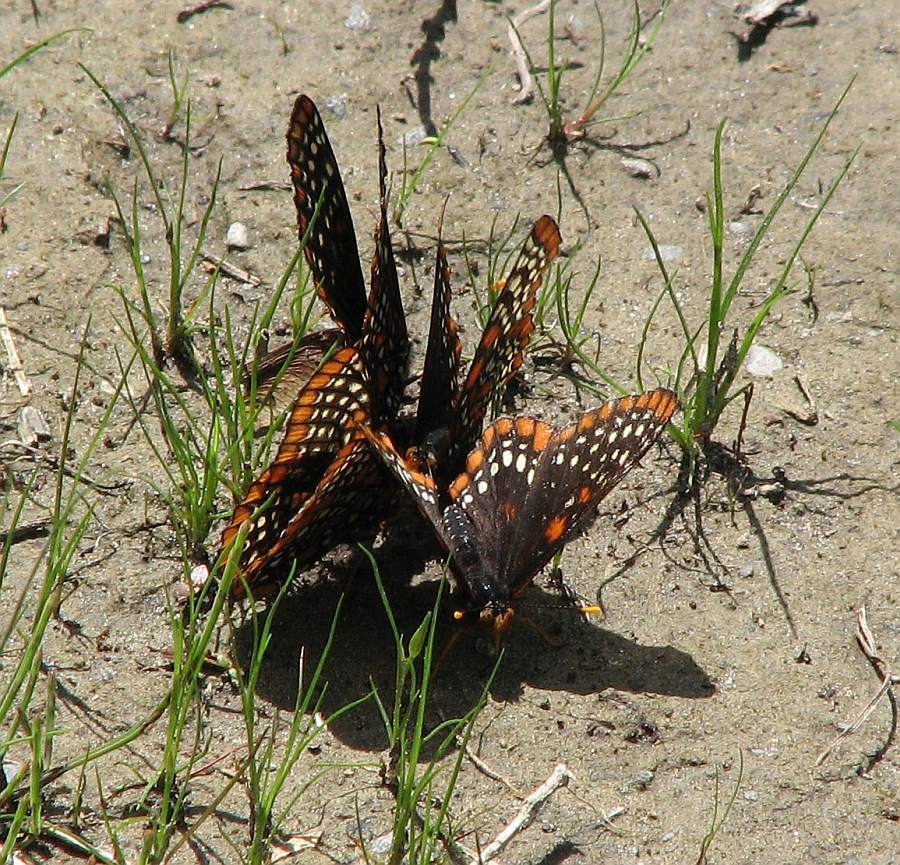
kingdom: Animalia
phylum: Arthropoda
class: Insecta
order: Lepidoptera
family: Nymphalidae
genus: Euphydryas
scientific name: Euphydryas phaeton
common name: Baltimore checkerspot
